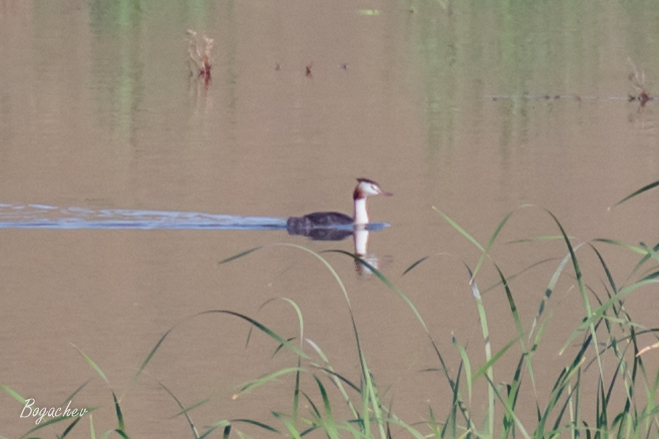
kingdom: Animalia
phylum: Chordata
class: Aves
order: Podicipediformes
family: Podicipedidae
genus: Podiceps
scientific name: Podiceps cristatus
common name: Great crested grebe
